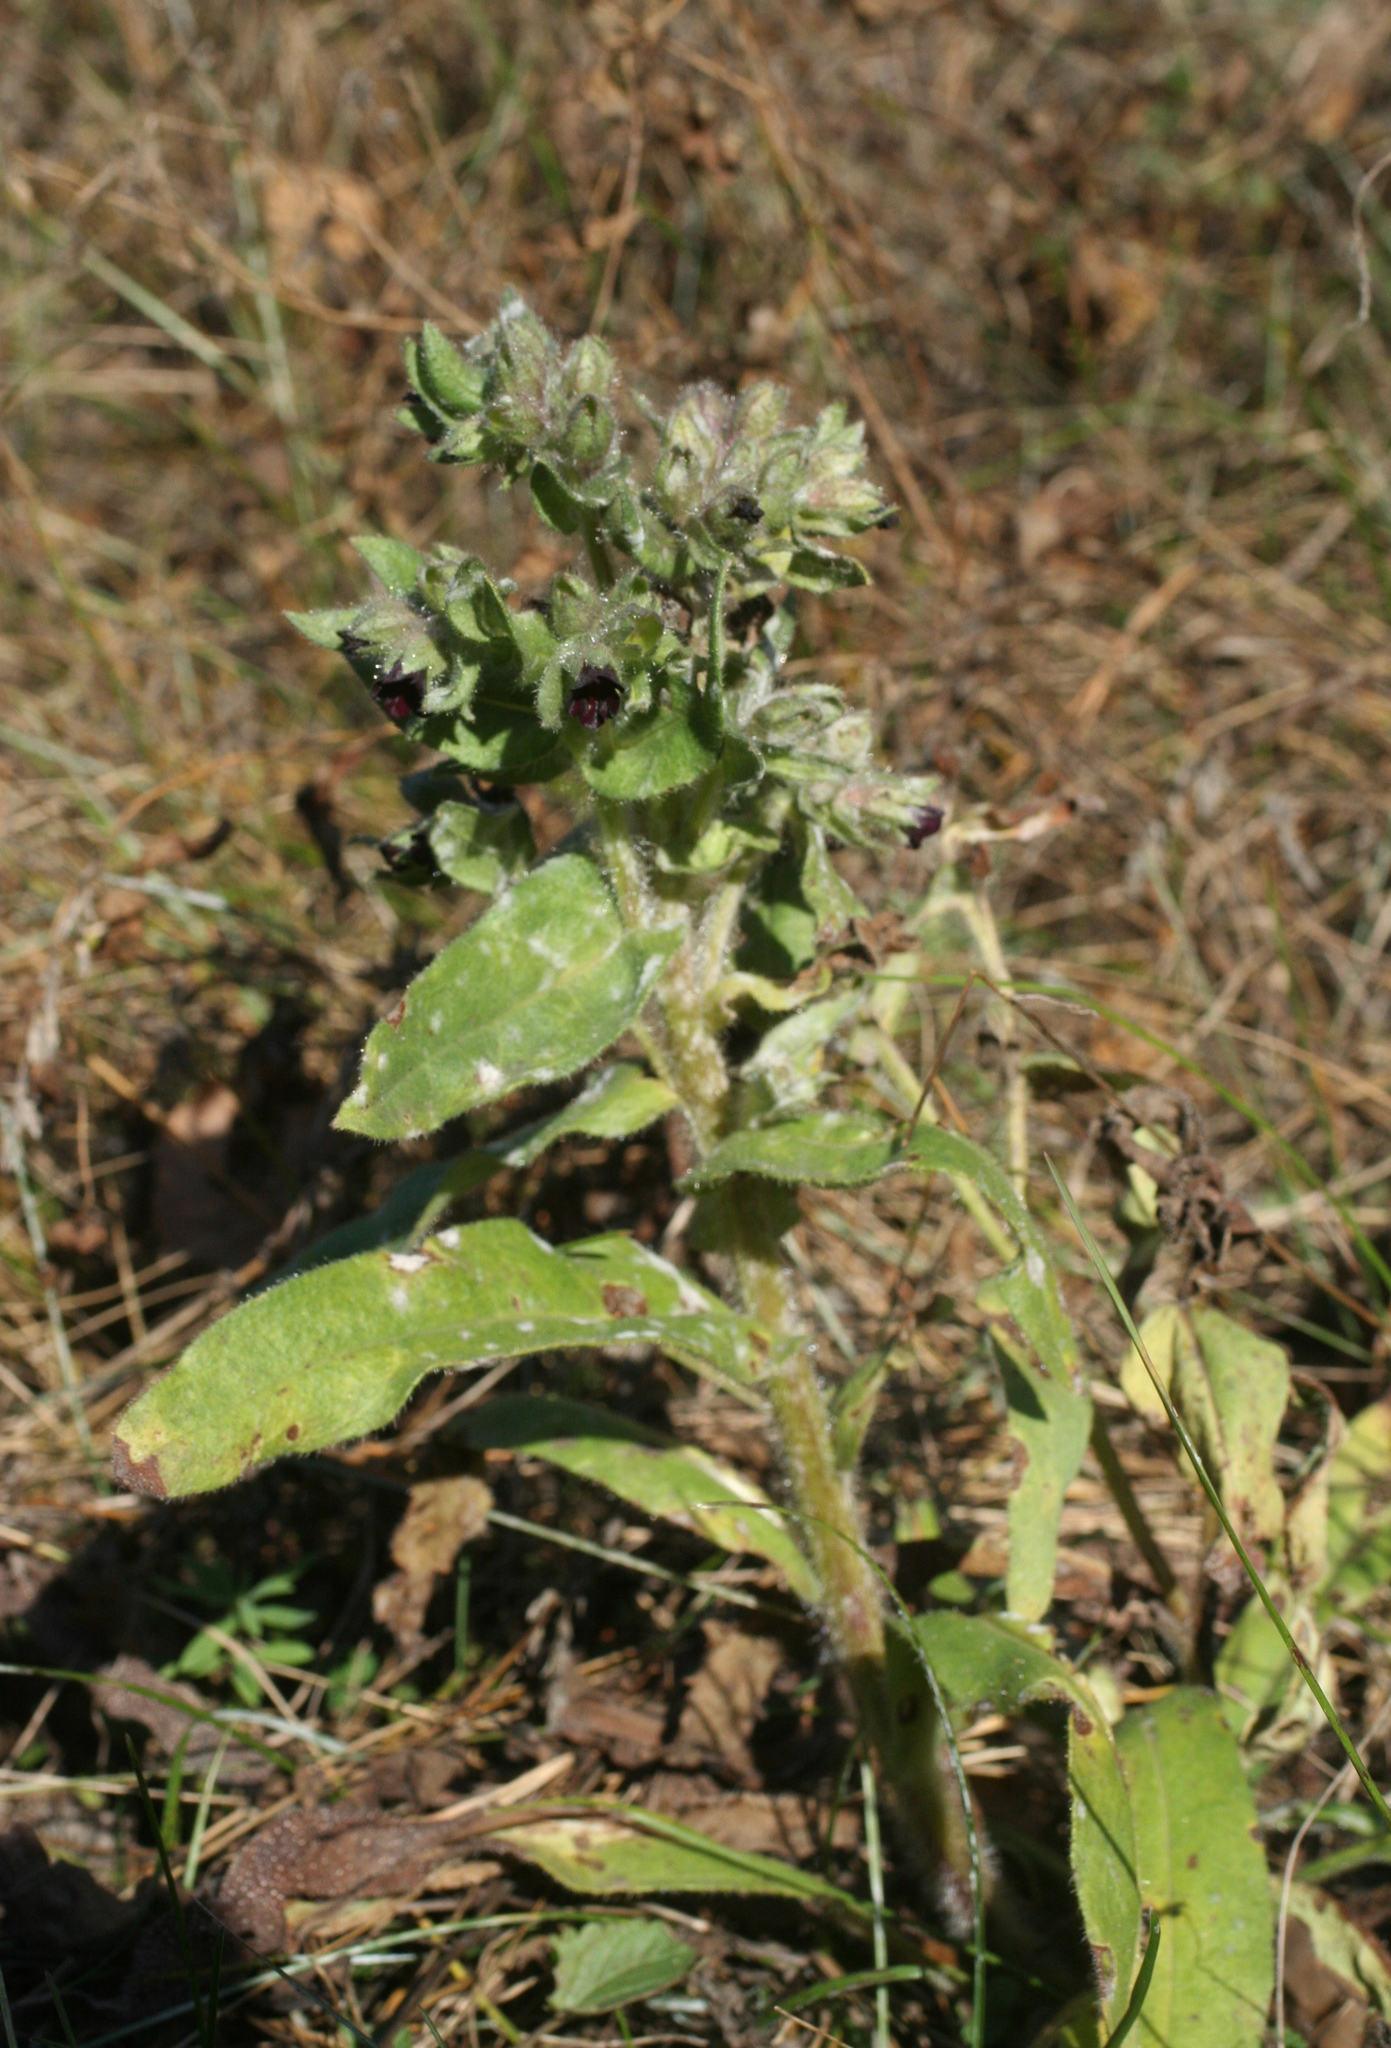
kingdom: Plantae
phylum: Tracheophyta
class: Magnoliopsida
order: Boraginales
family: Boraginaceae
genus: Nonea
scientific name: Nonea pulla
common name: Brown nonea
